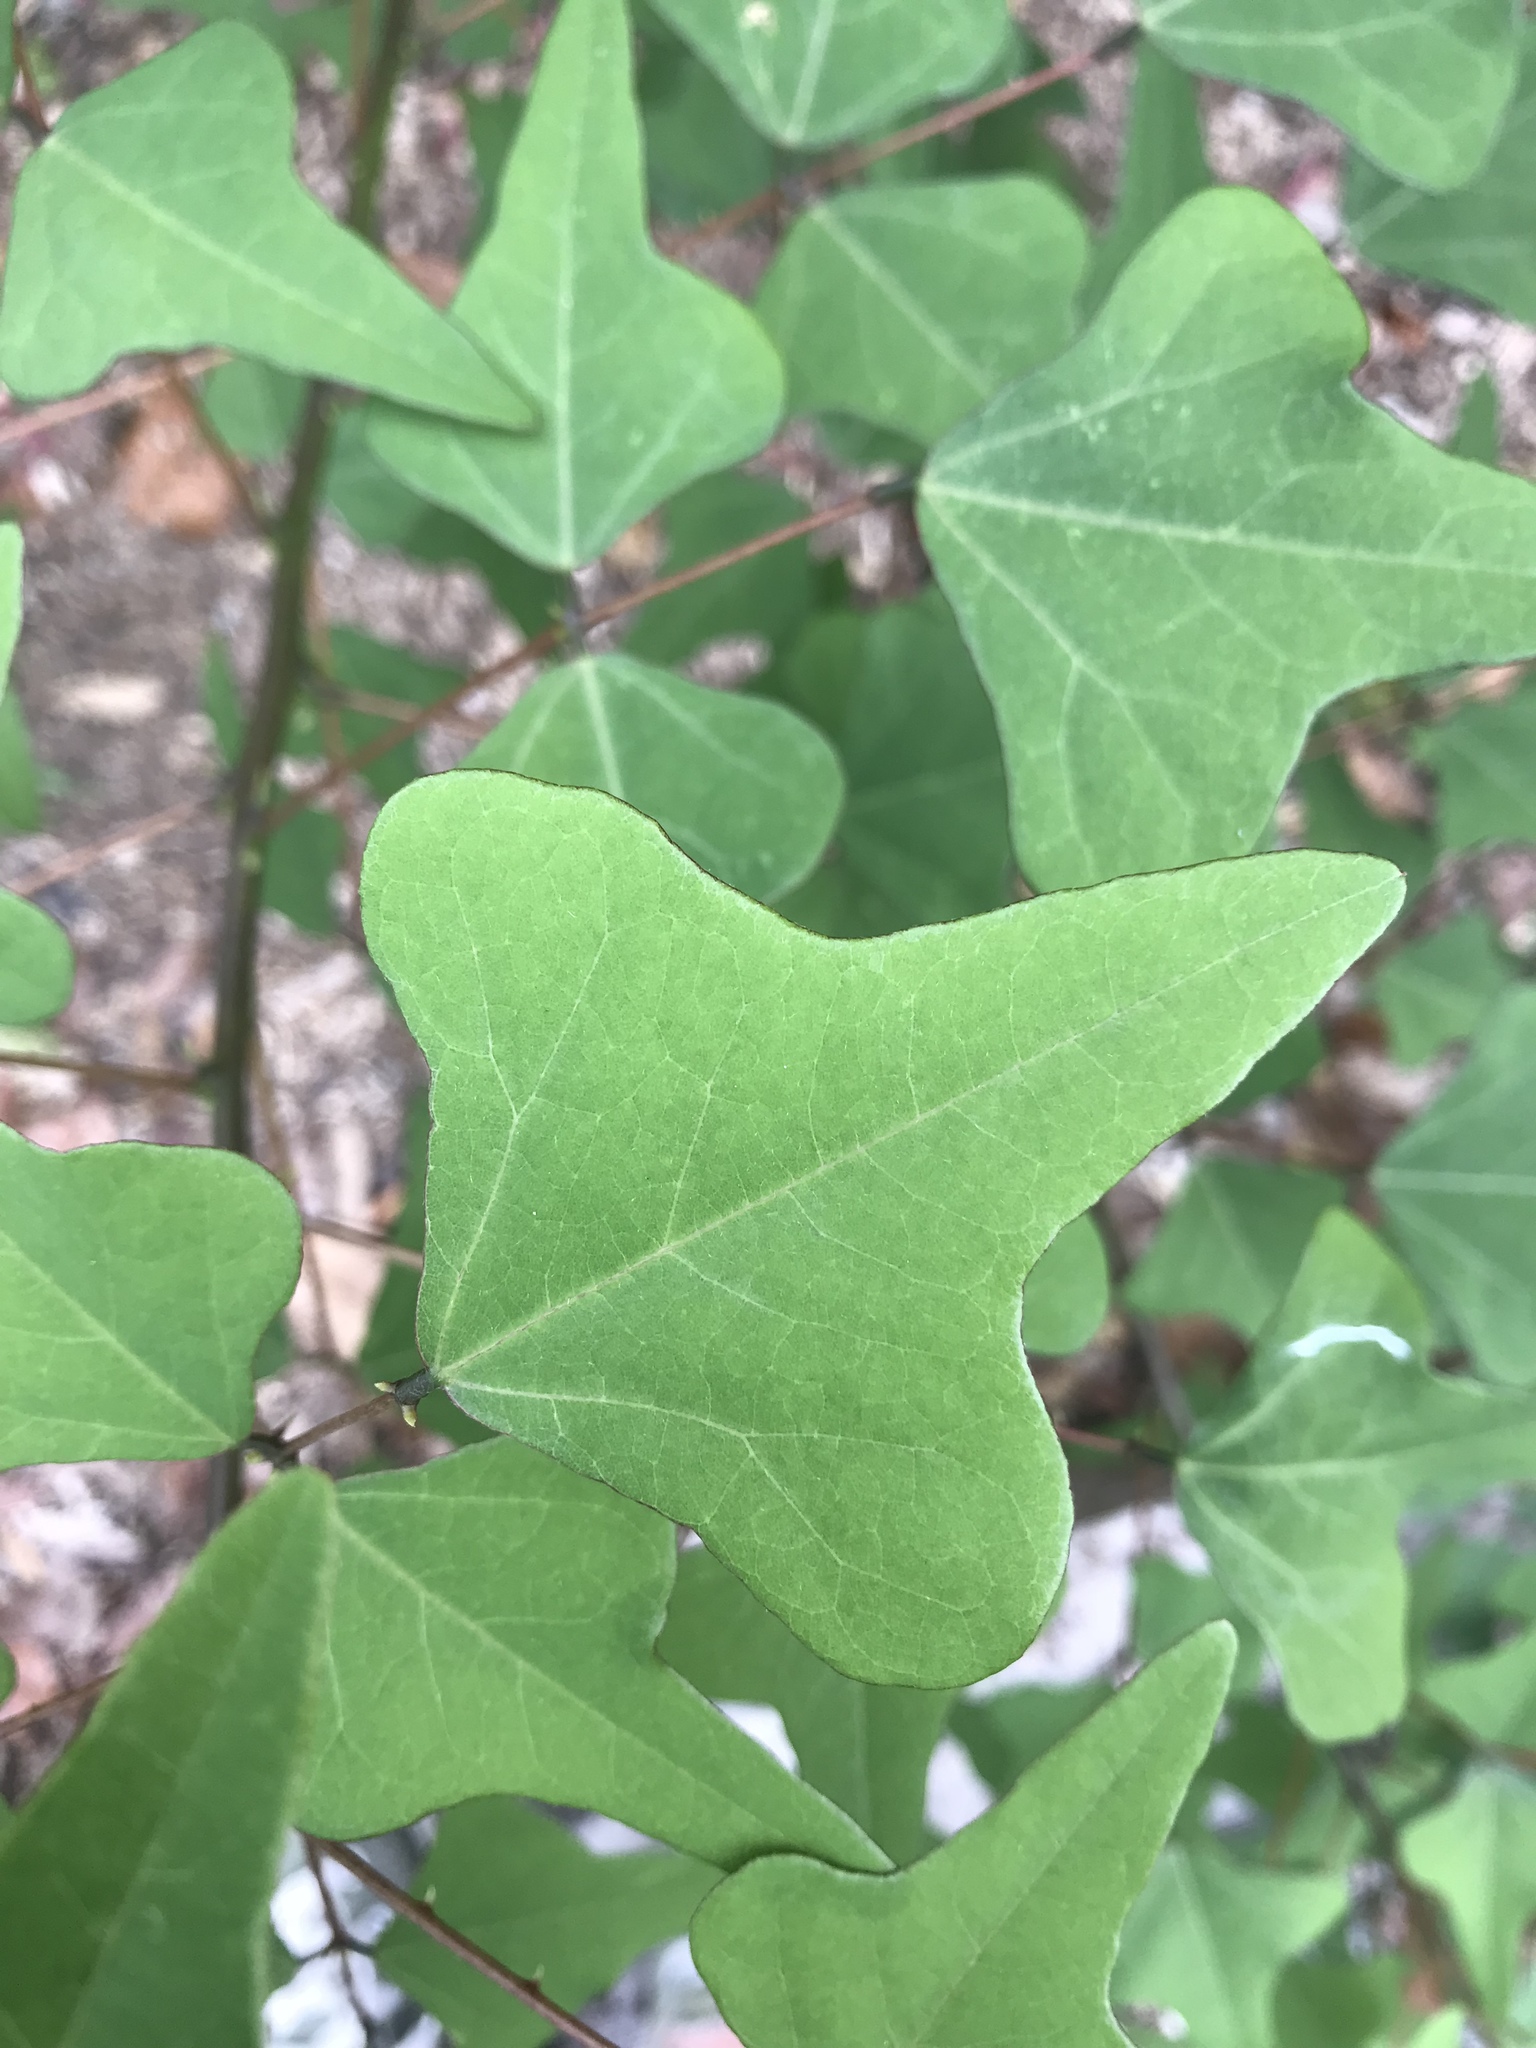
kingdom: Plantae
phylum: Tracheophyta
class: Magnoliopsida
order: Fabales
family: Fabaceae
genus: Erythrina
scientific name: Erythrina herbacea
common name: Coral-bean
